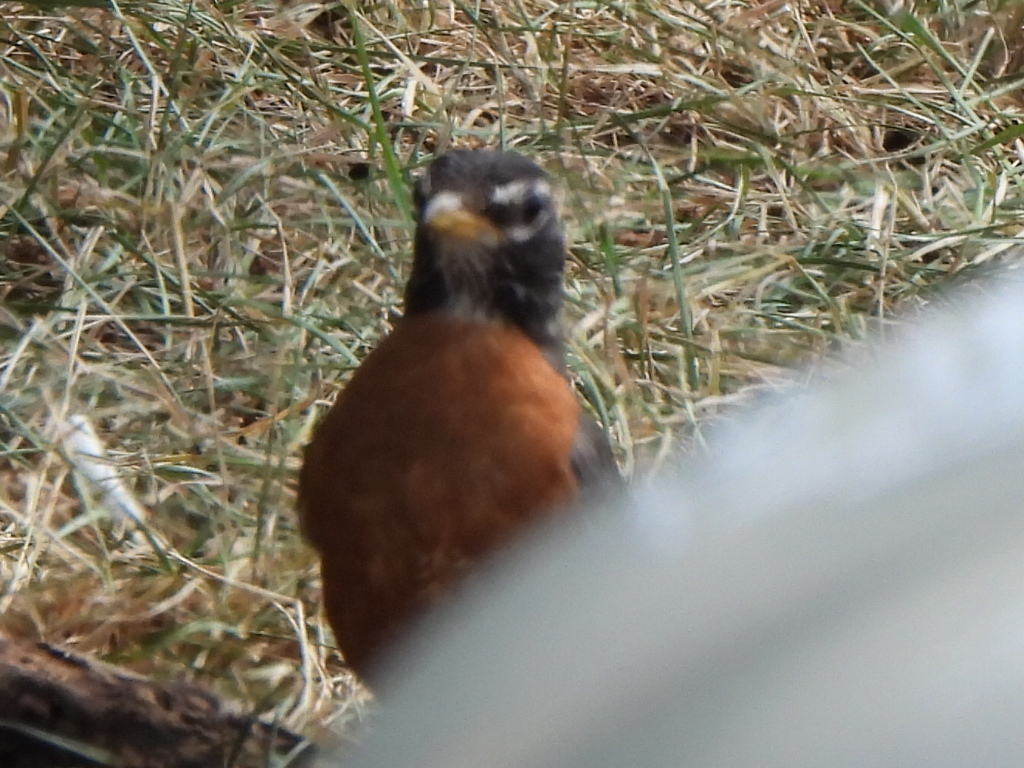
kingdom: Animalia
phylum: Chordata
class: Aves
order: Passeriformes
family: Turdidae
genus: Turdus
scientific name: Turdus migratorius
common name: American robin
